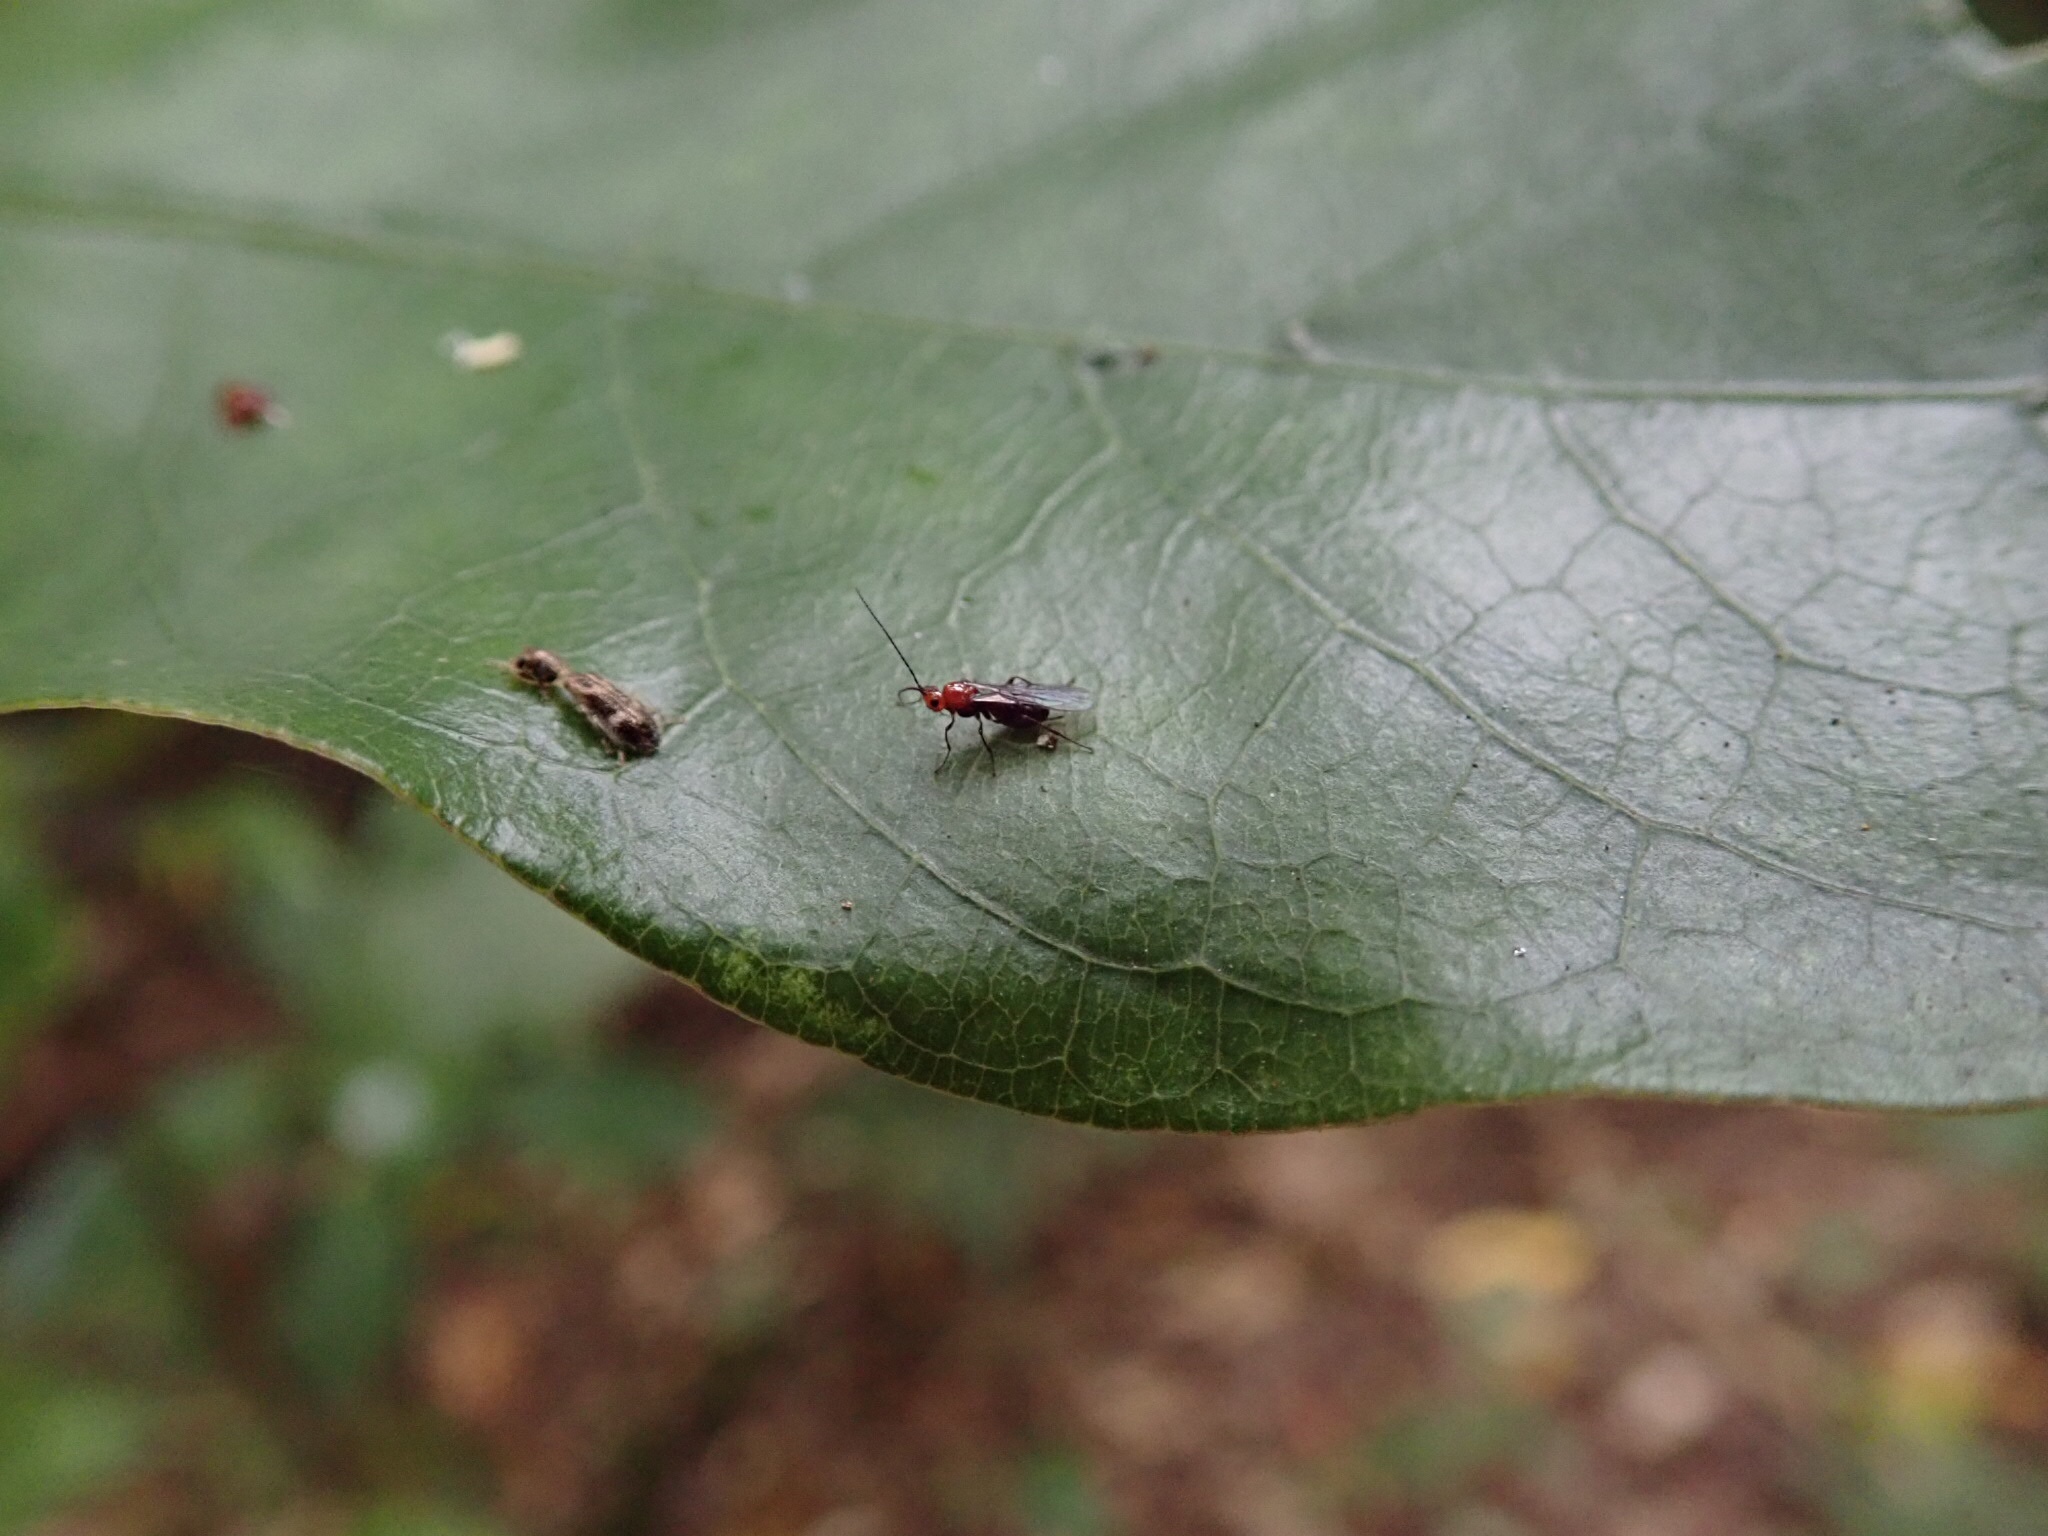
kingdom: Animalia
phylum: Arthropoda
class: Insecta
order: Hymenoptera
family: Braconidae
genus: Asobara
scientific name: Asobara antipoda
